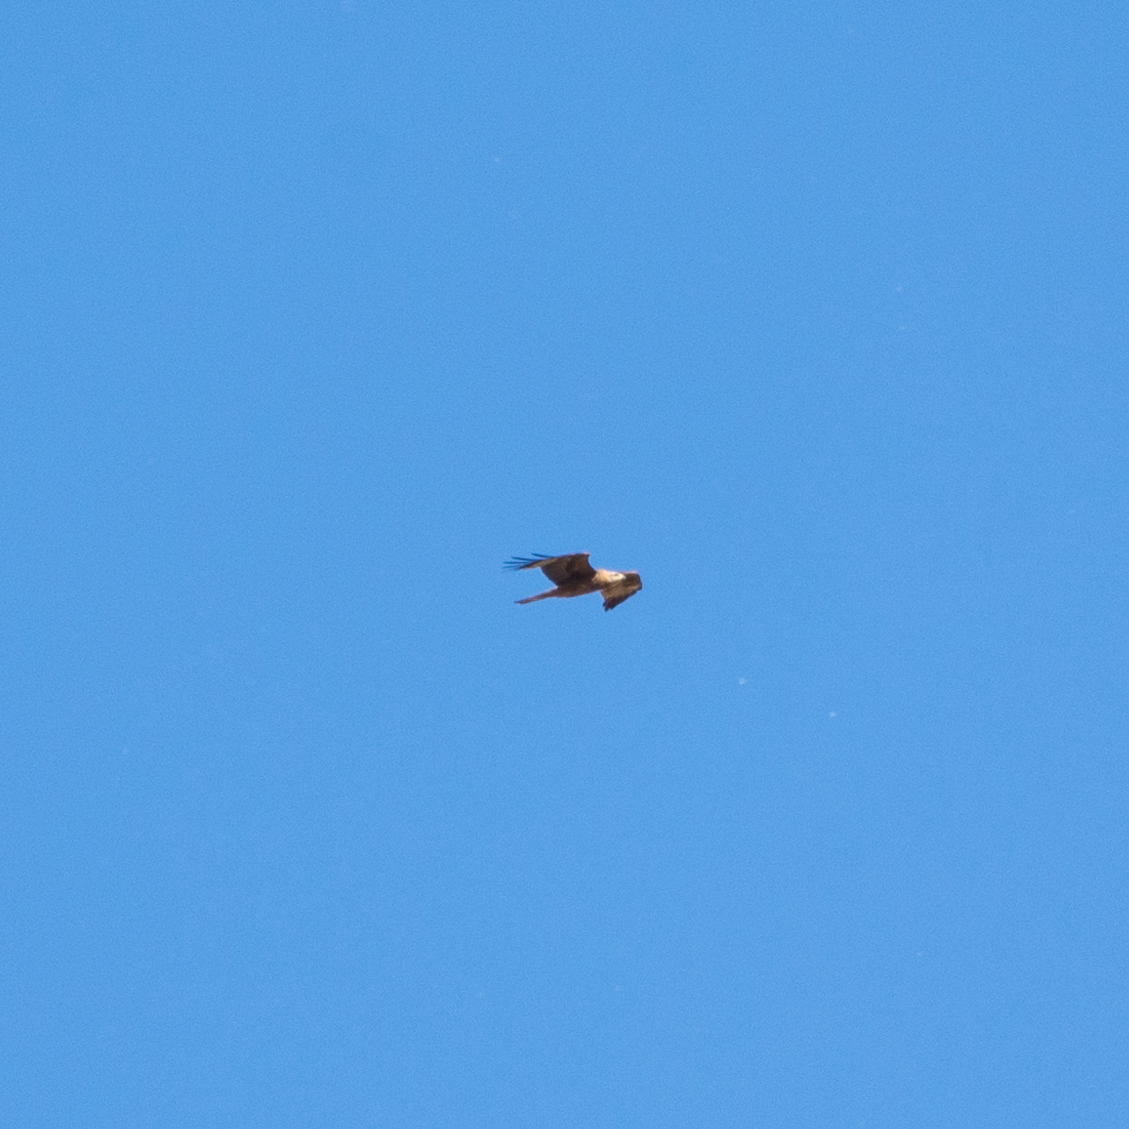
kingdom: Animalia
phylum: Chordata
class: Aves
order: Accipitriformes
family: Accipitridae
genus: Milvus
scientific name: Milvus migrans
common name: Black kite
